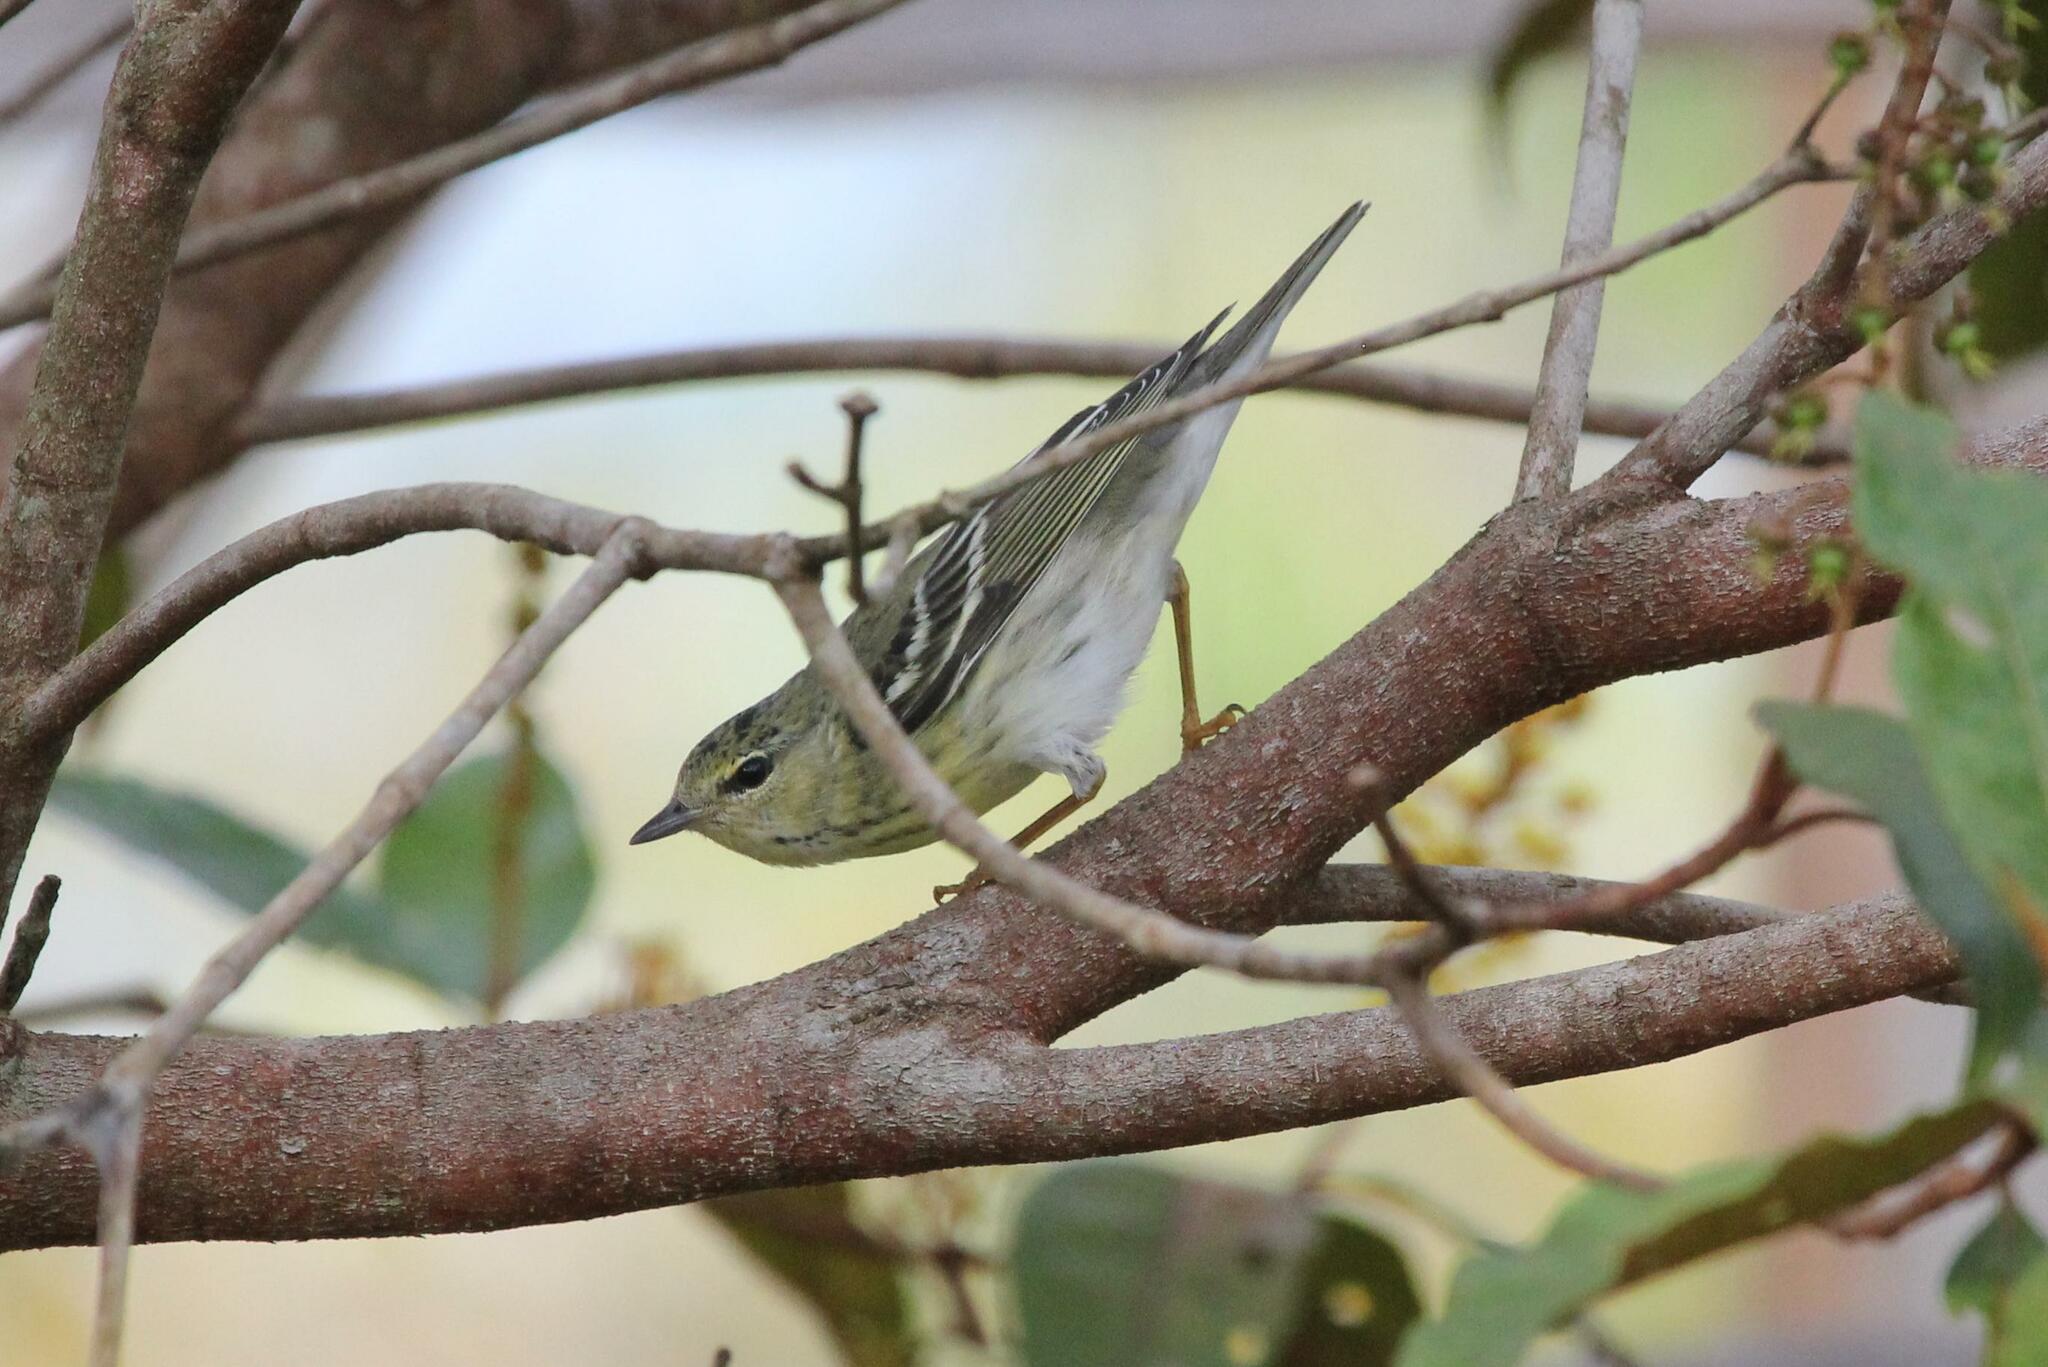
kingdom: Animalia
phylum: Chordata
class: Aves
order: Passeriformes
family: Parulidae
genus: Setophaga
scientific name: Setophaga striata
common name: Blackpoll warbler
